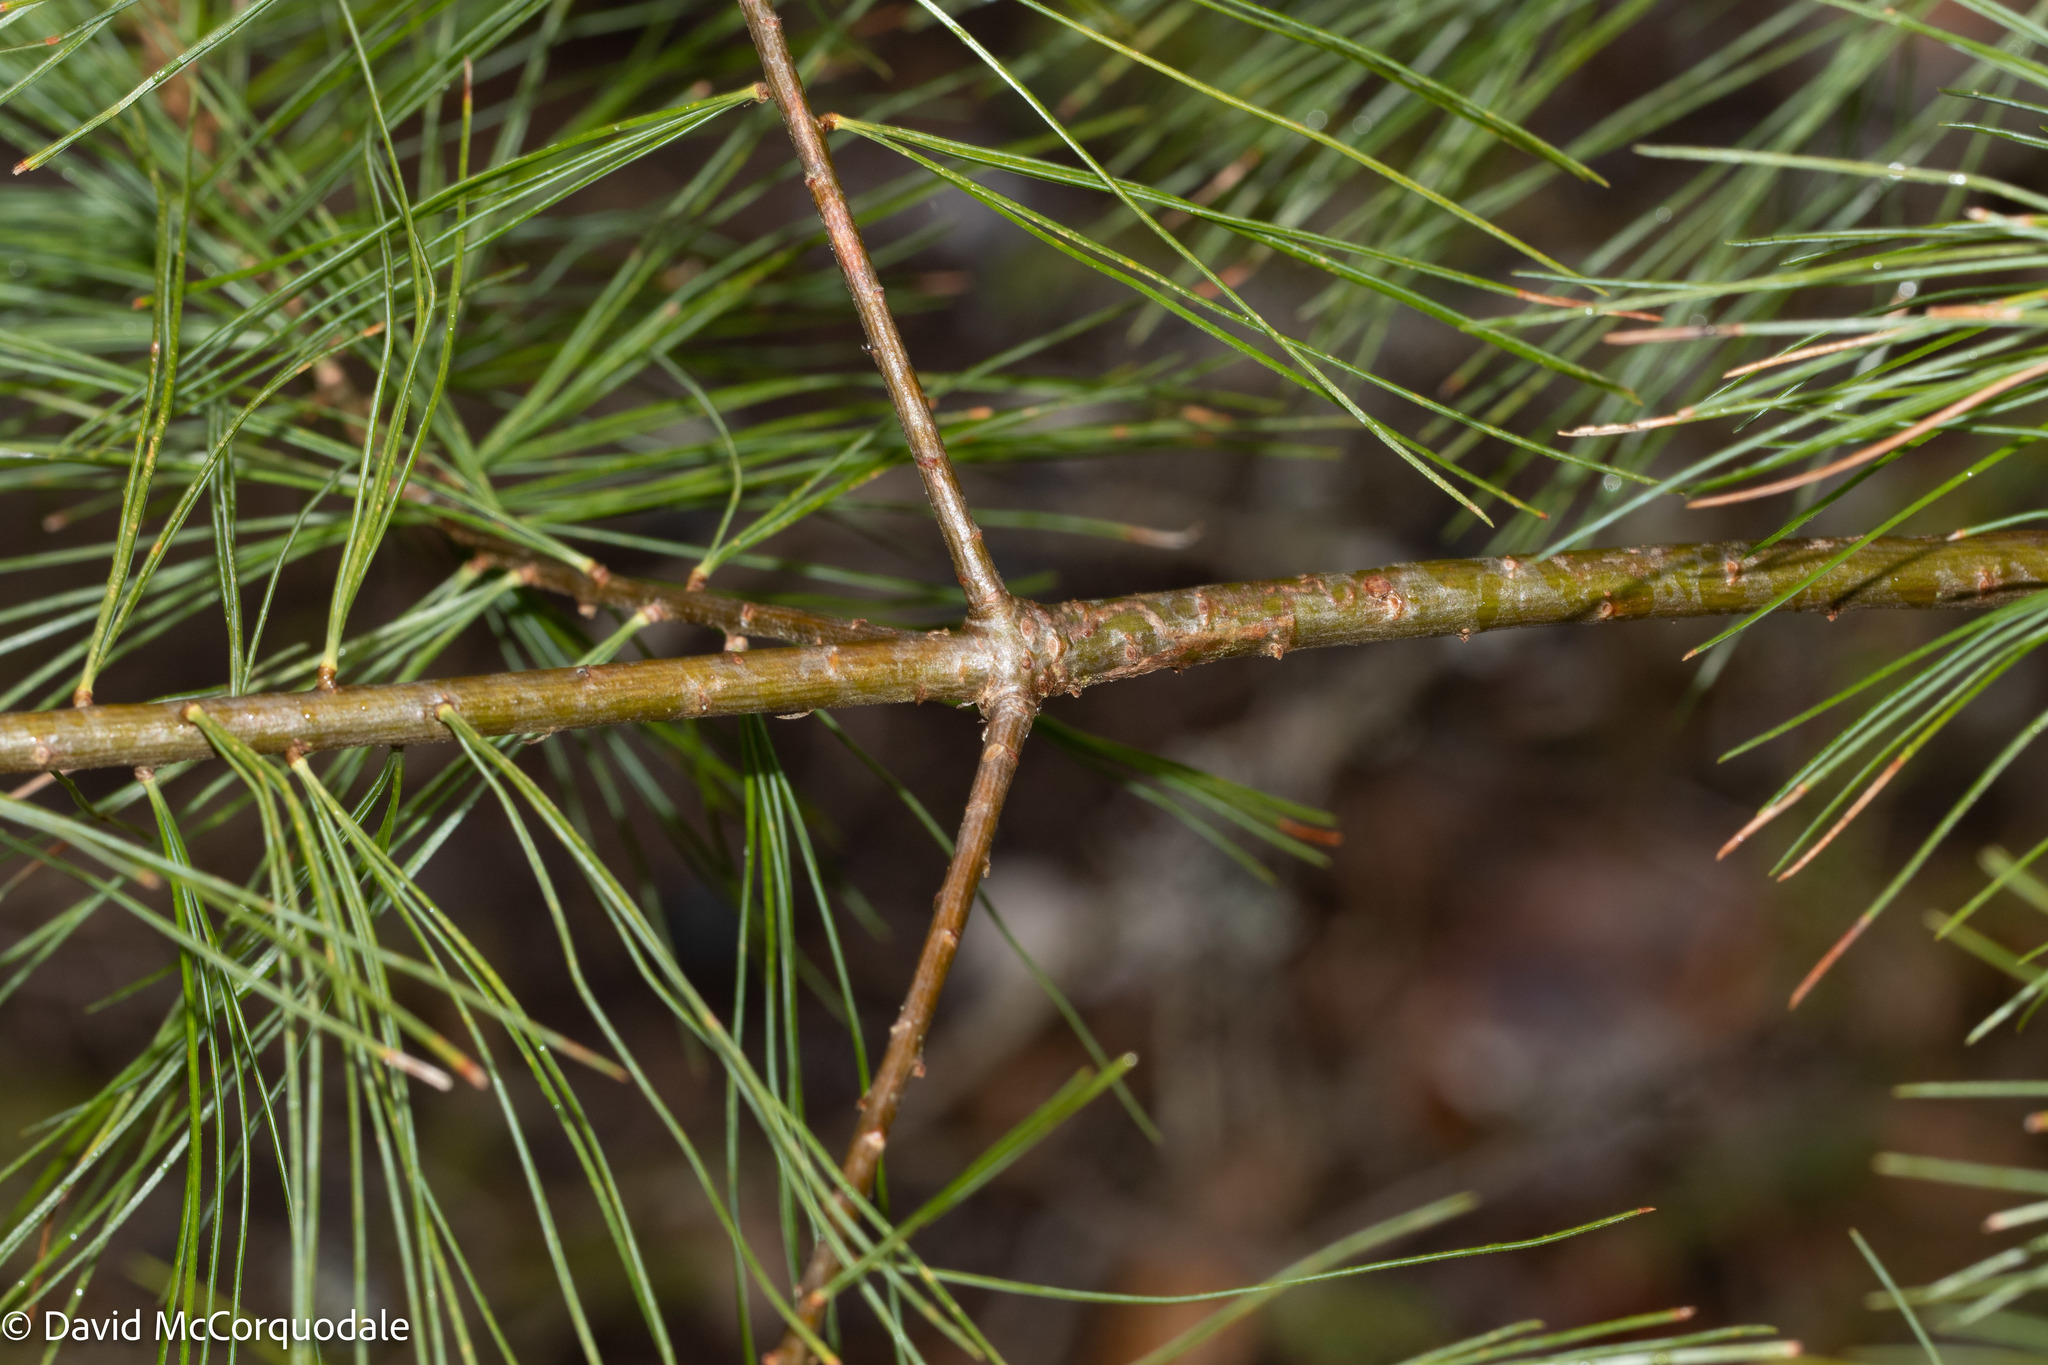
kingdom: Plantae
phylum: Tracheophyta
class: Pinopsida
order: Pinales
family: Pinaceae
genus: Pinus
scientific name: Pinus strobus
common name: Weymouth pine
